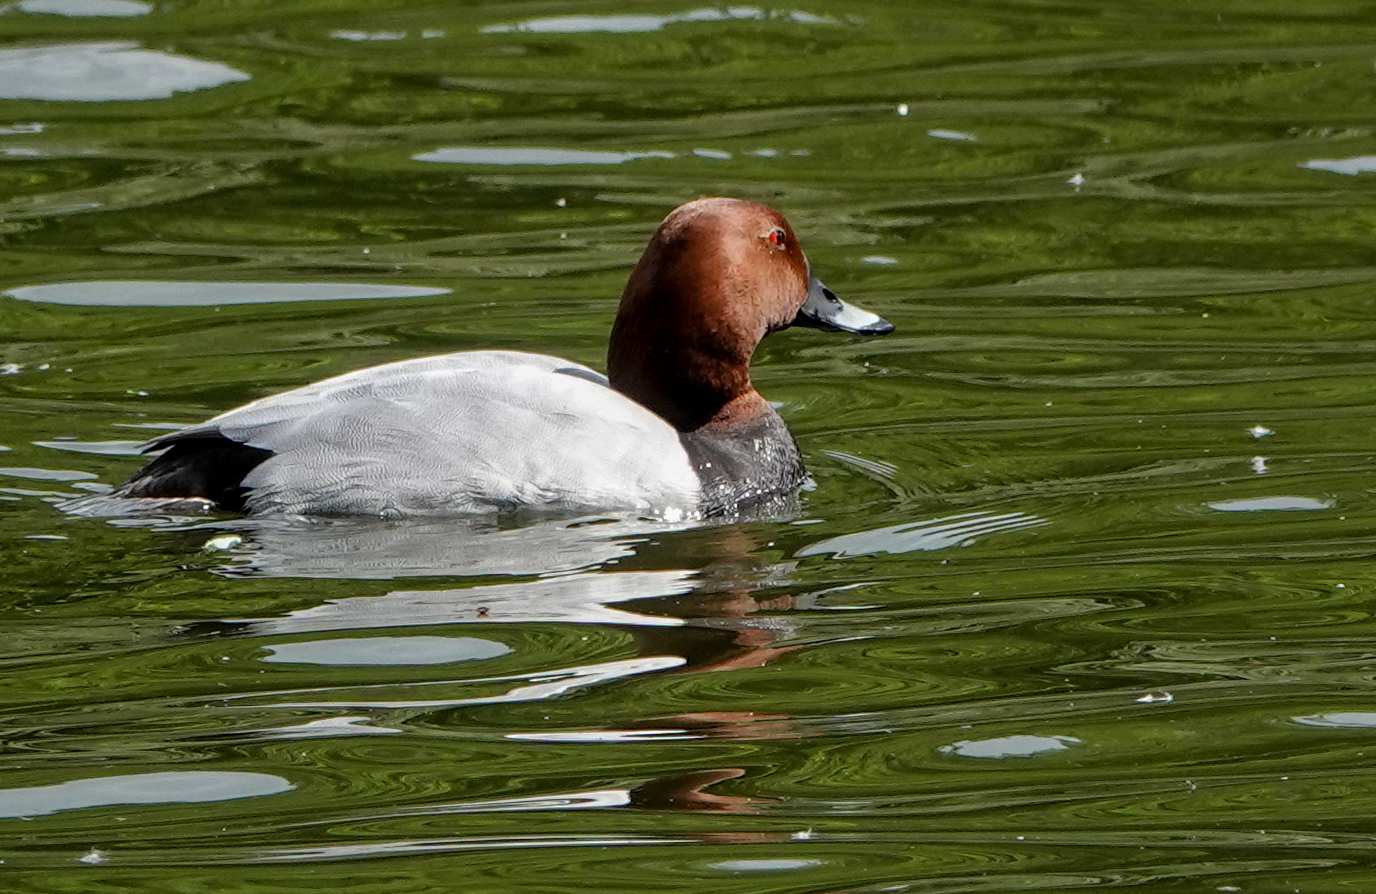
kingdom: Animalia
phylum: Chordata
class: Aves
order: Anseriformes
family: Anatidae
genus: Aythya
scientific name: Aythya ferina
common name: Common pochard
